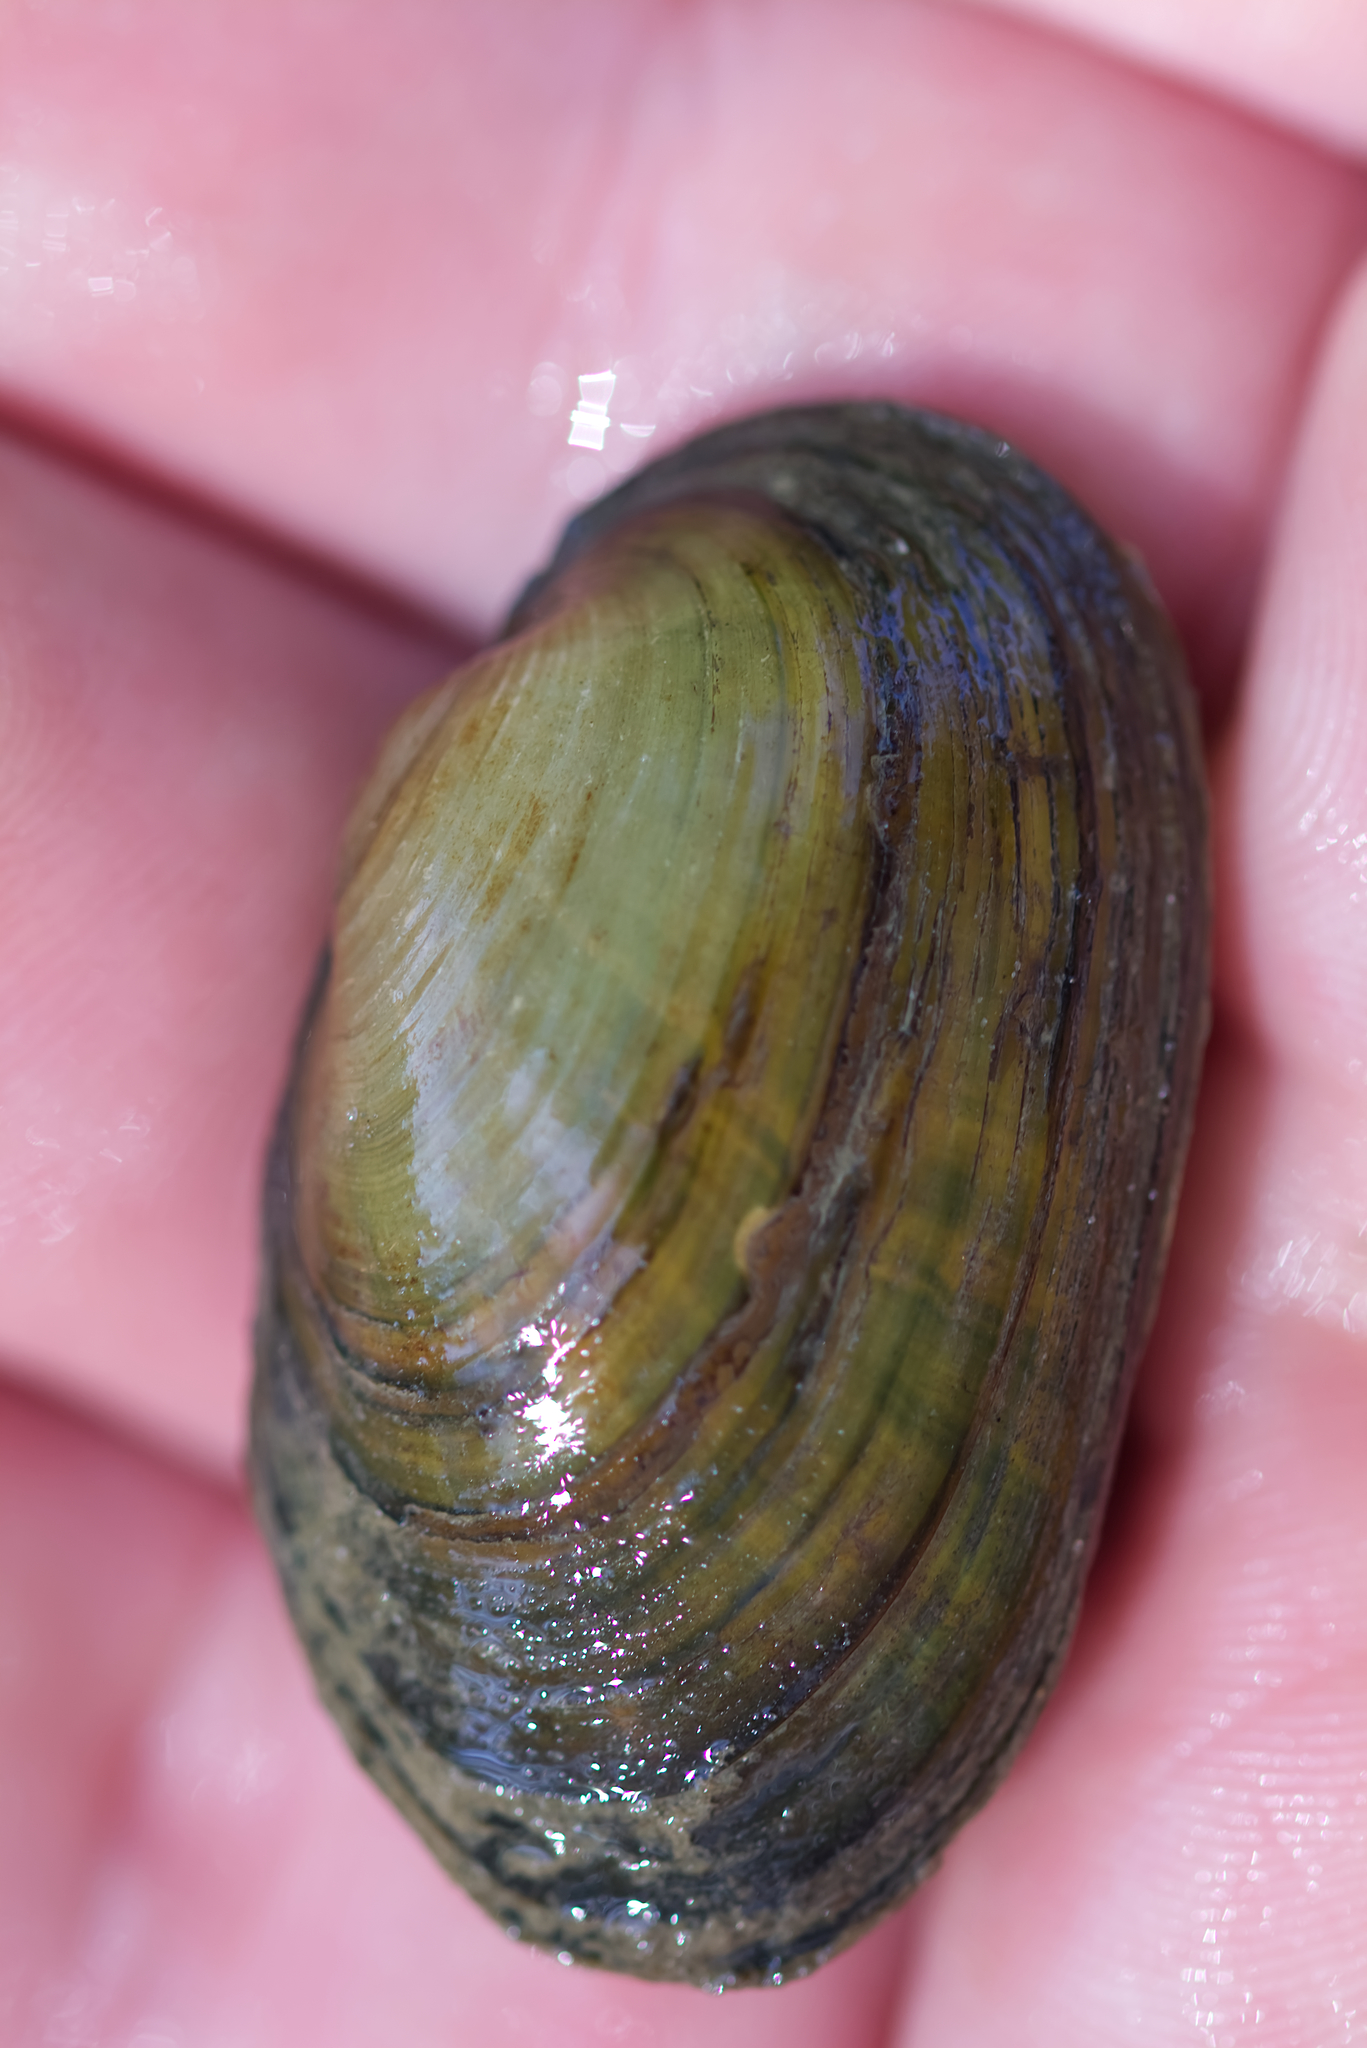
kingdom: Animalia
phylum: Mollusca
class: Bivalvia
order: Unionida
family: Unionidae
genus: Unio
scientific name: Unio crassus
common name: Thick shelled river mussel
